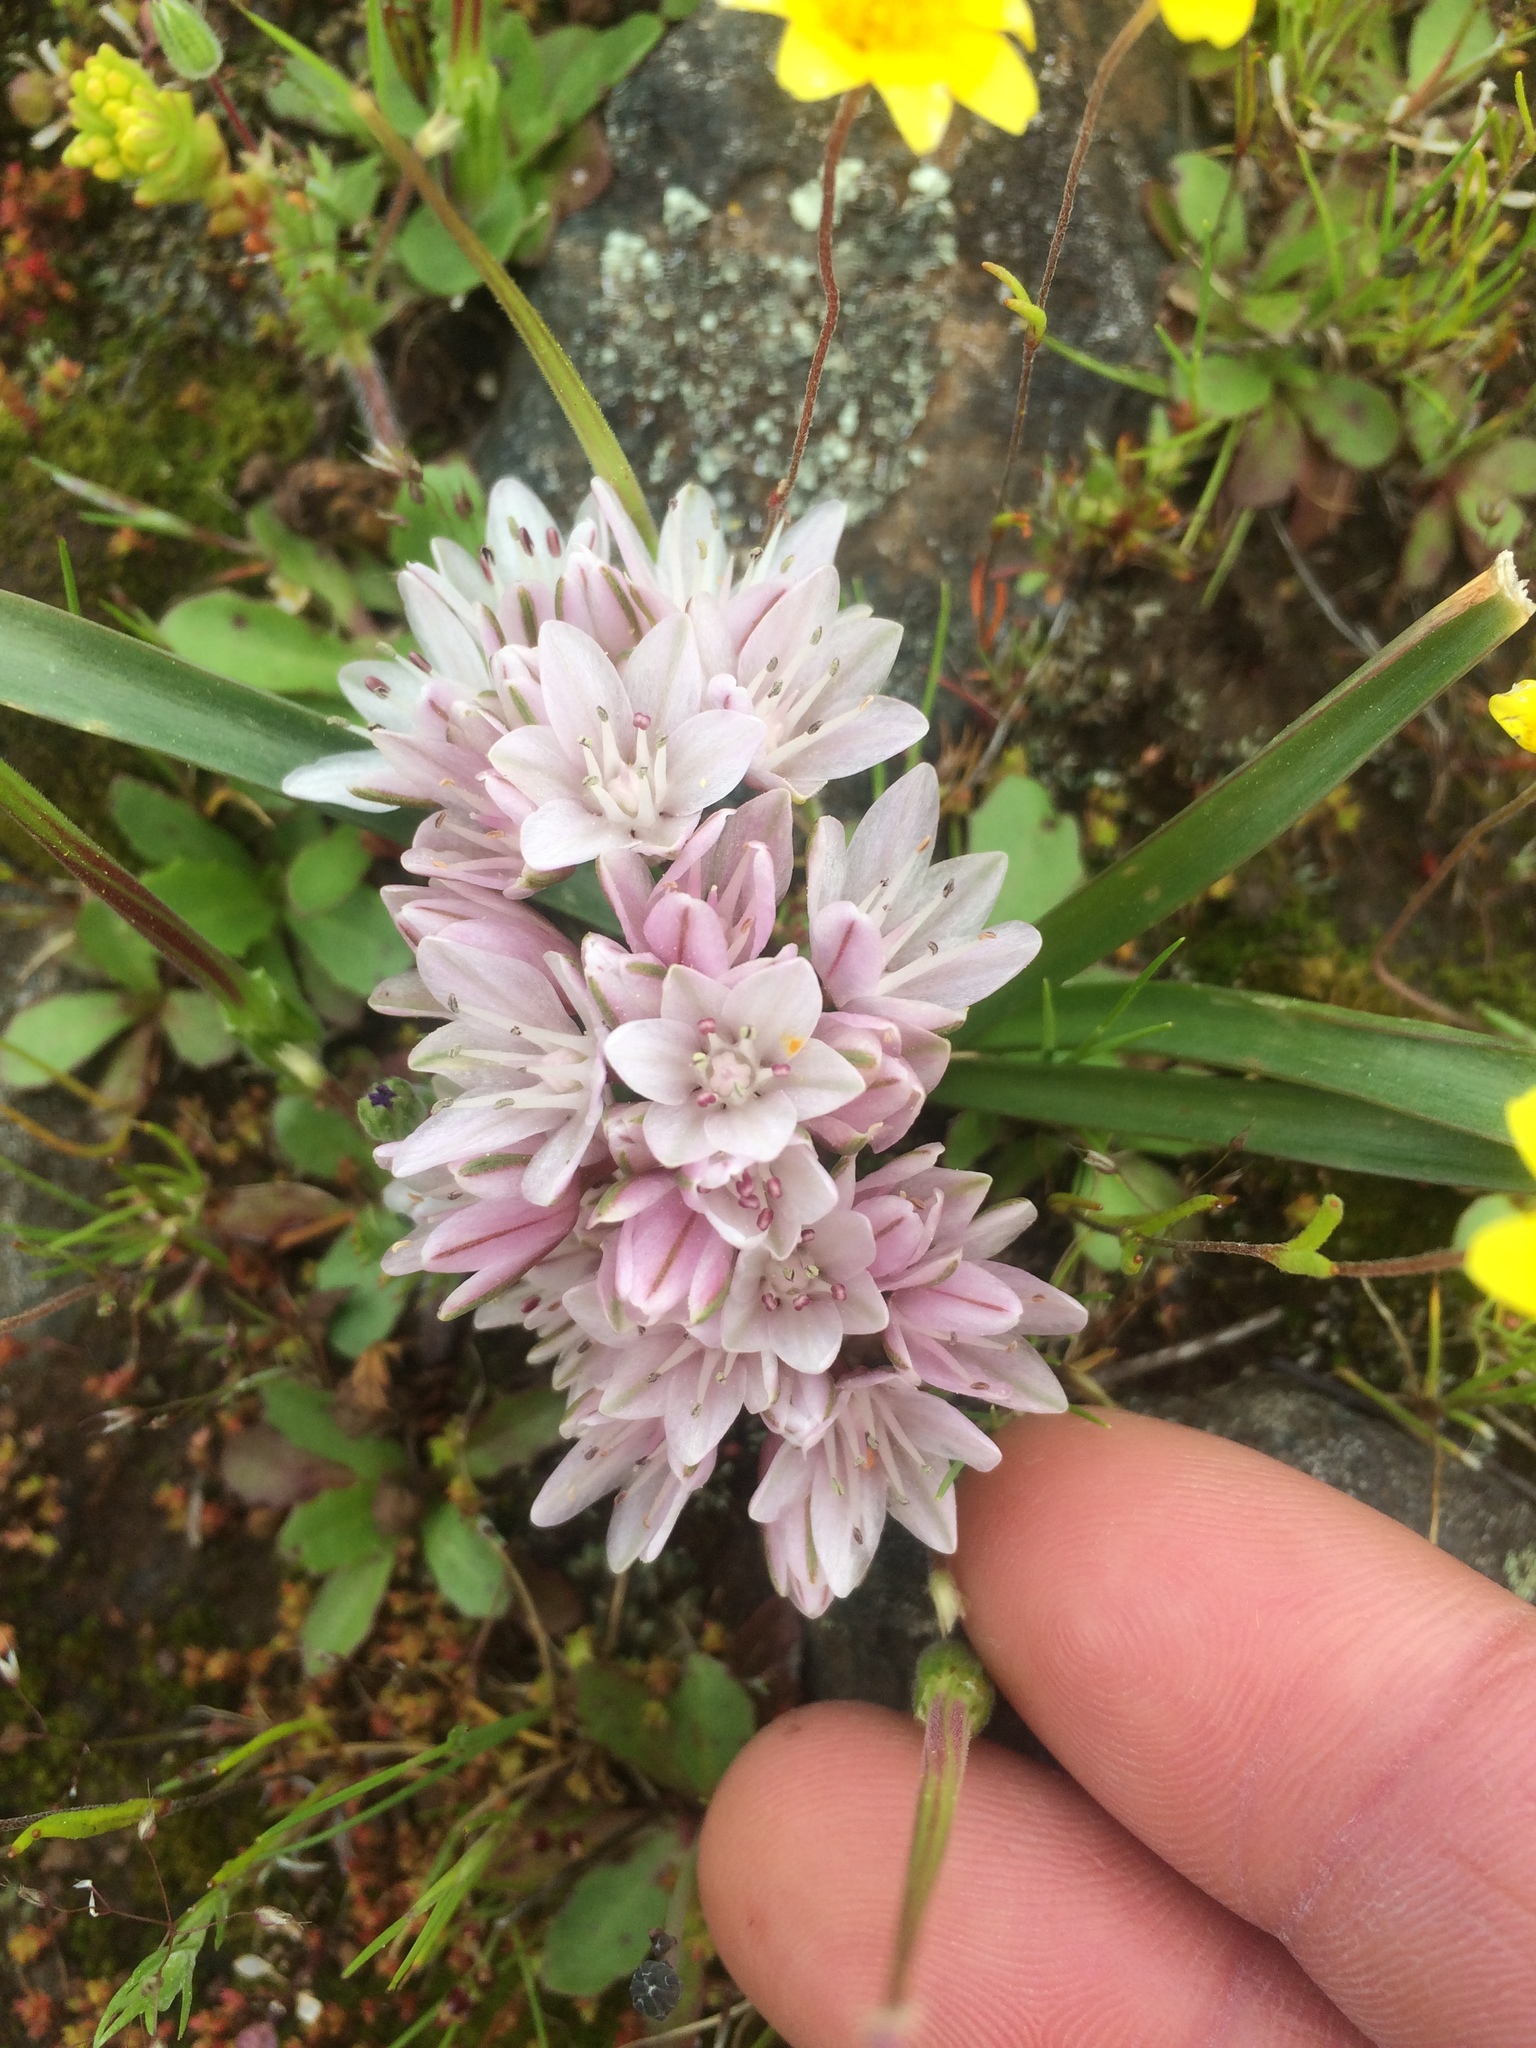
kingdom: Plantae
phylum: Tracheophyta
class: Liliopsida
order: Asparagales
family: Amaryllidaceae
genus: Allium
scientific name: Allium cratericola
